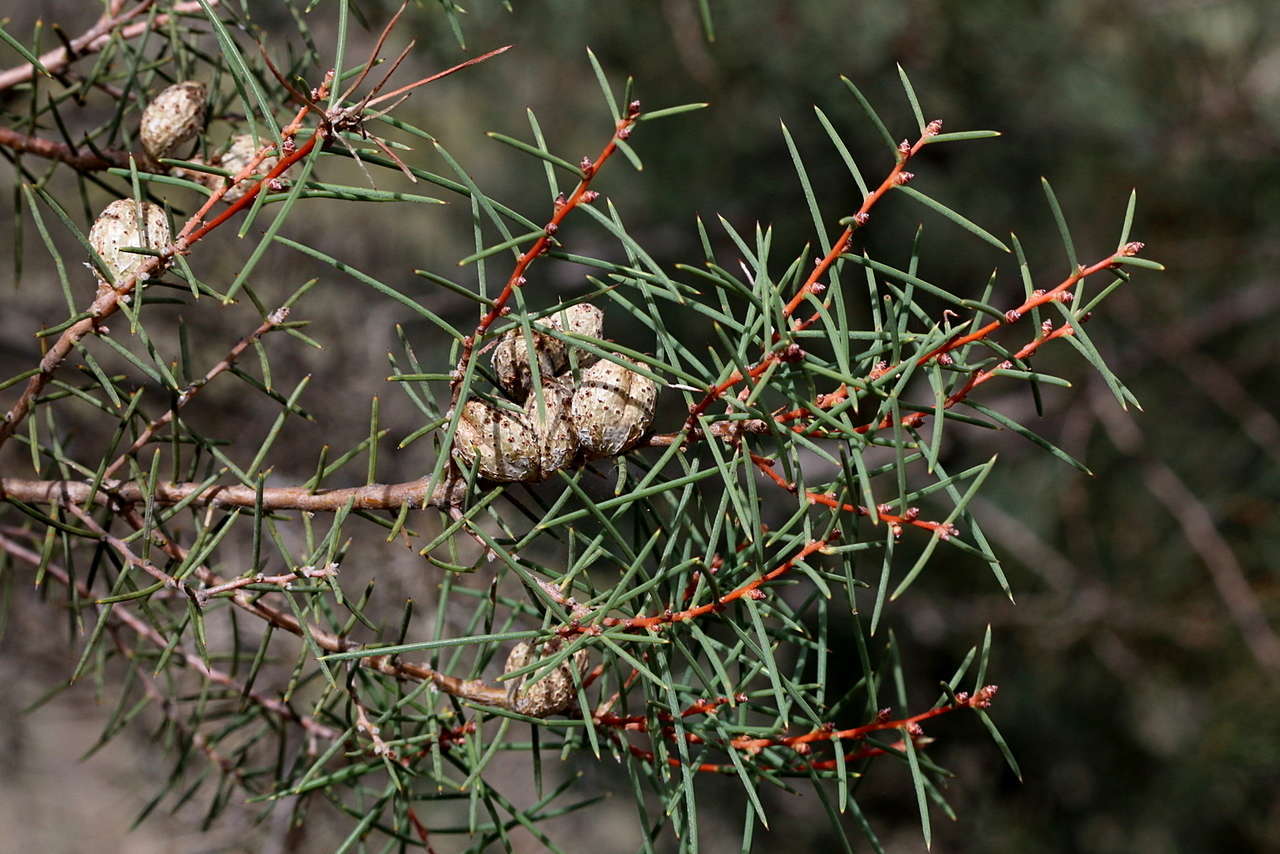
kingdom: Plantae
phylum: Tracheophyta
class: Magnoliopsida
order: Proteales
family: Proteaceae
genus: Hakea
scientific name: Hakea mitchellii
